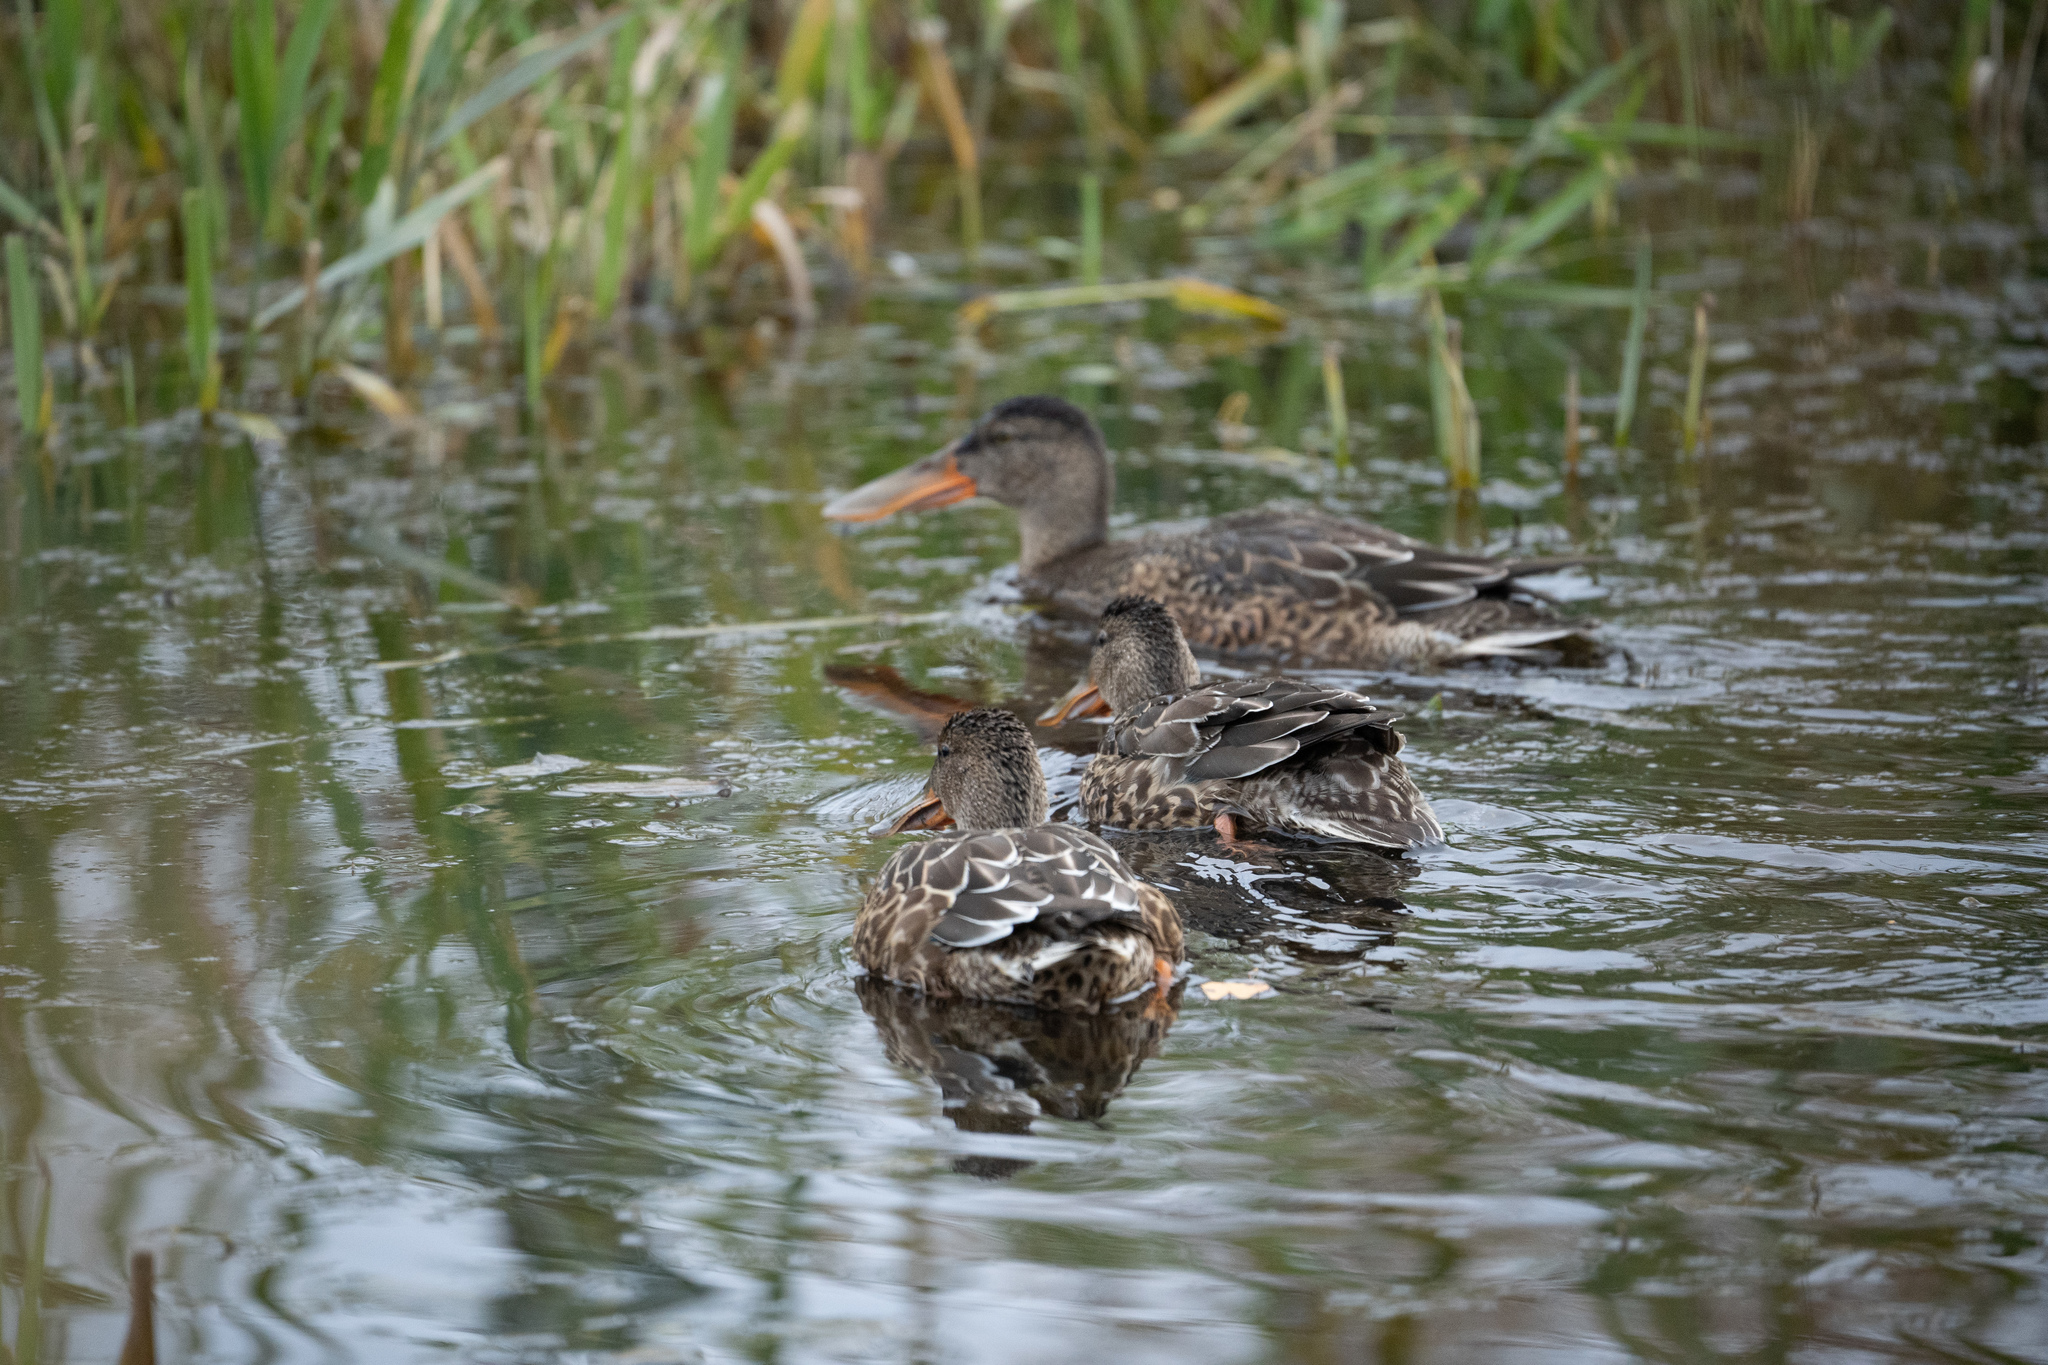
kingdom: Animalia
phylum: Chordata
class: Aves
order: Anseriformes
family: Anatidae
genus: Spatula
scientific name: Spatula clypeata
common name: Northern shoveler
